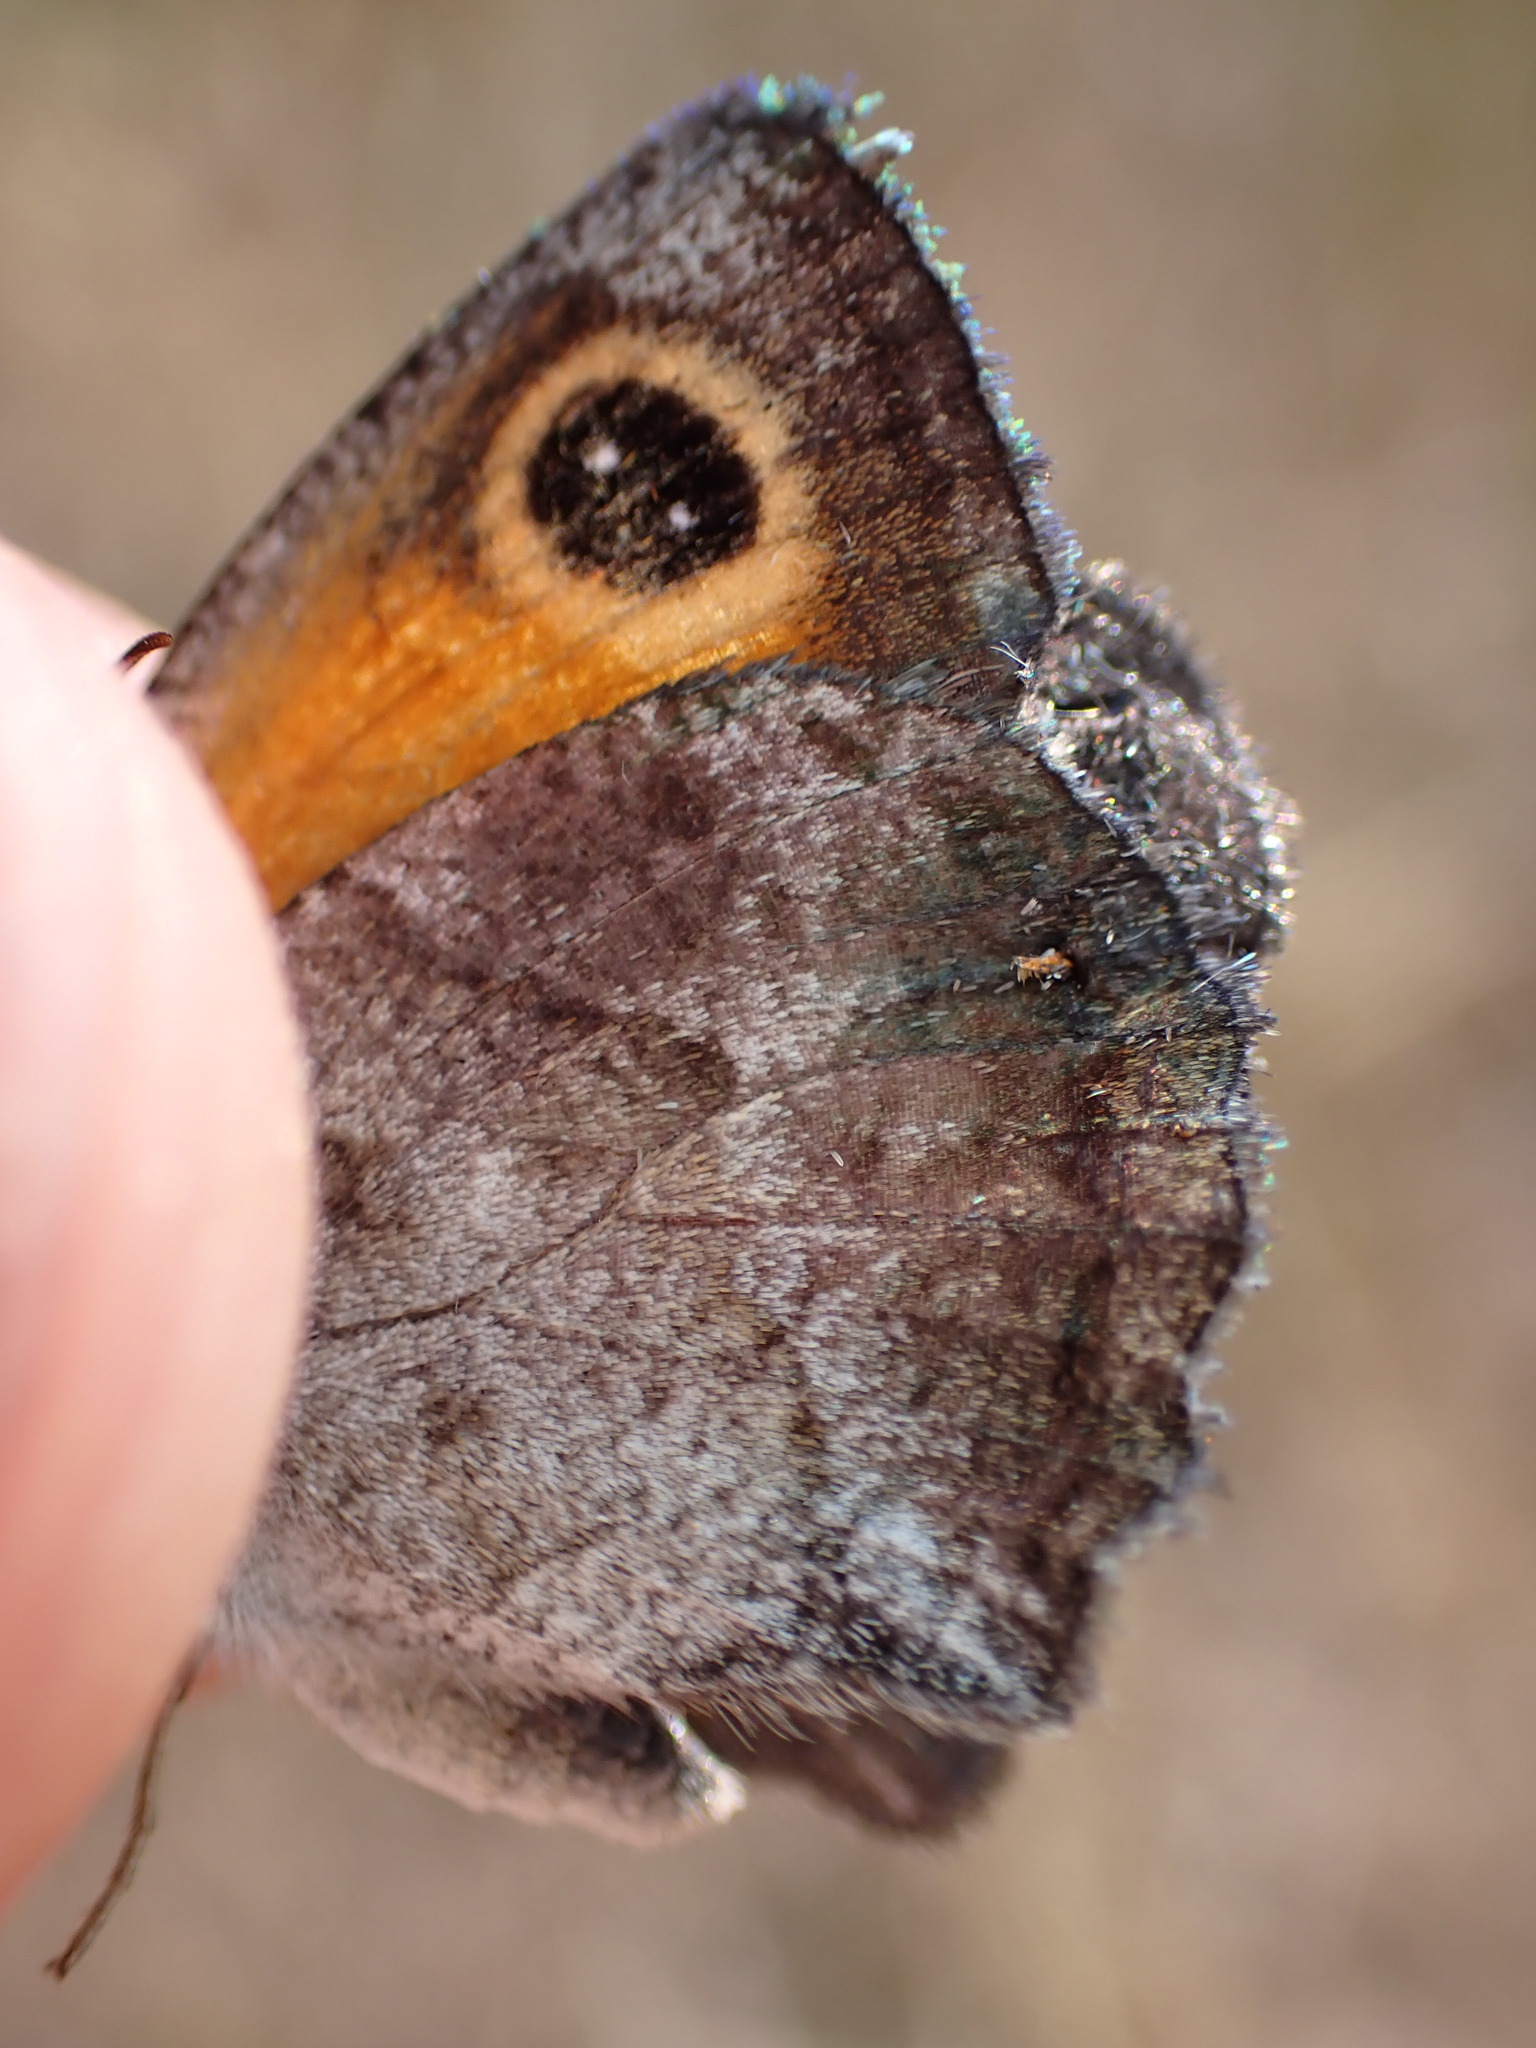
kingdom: Animalia
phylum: Arthropoda
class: Insecta
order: Lepidoptera
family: Nymphalidae
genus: Pyronia
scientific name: Pyronia cecilia
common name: Southern gatekeeper
